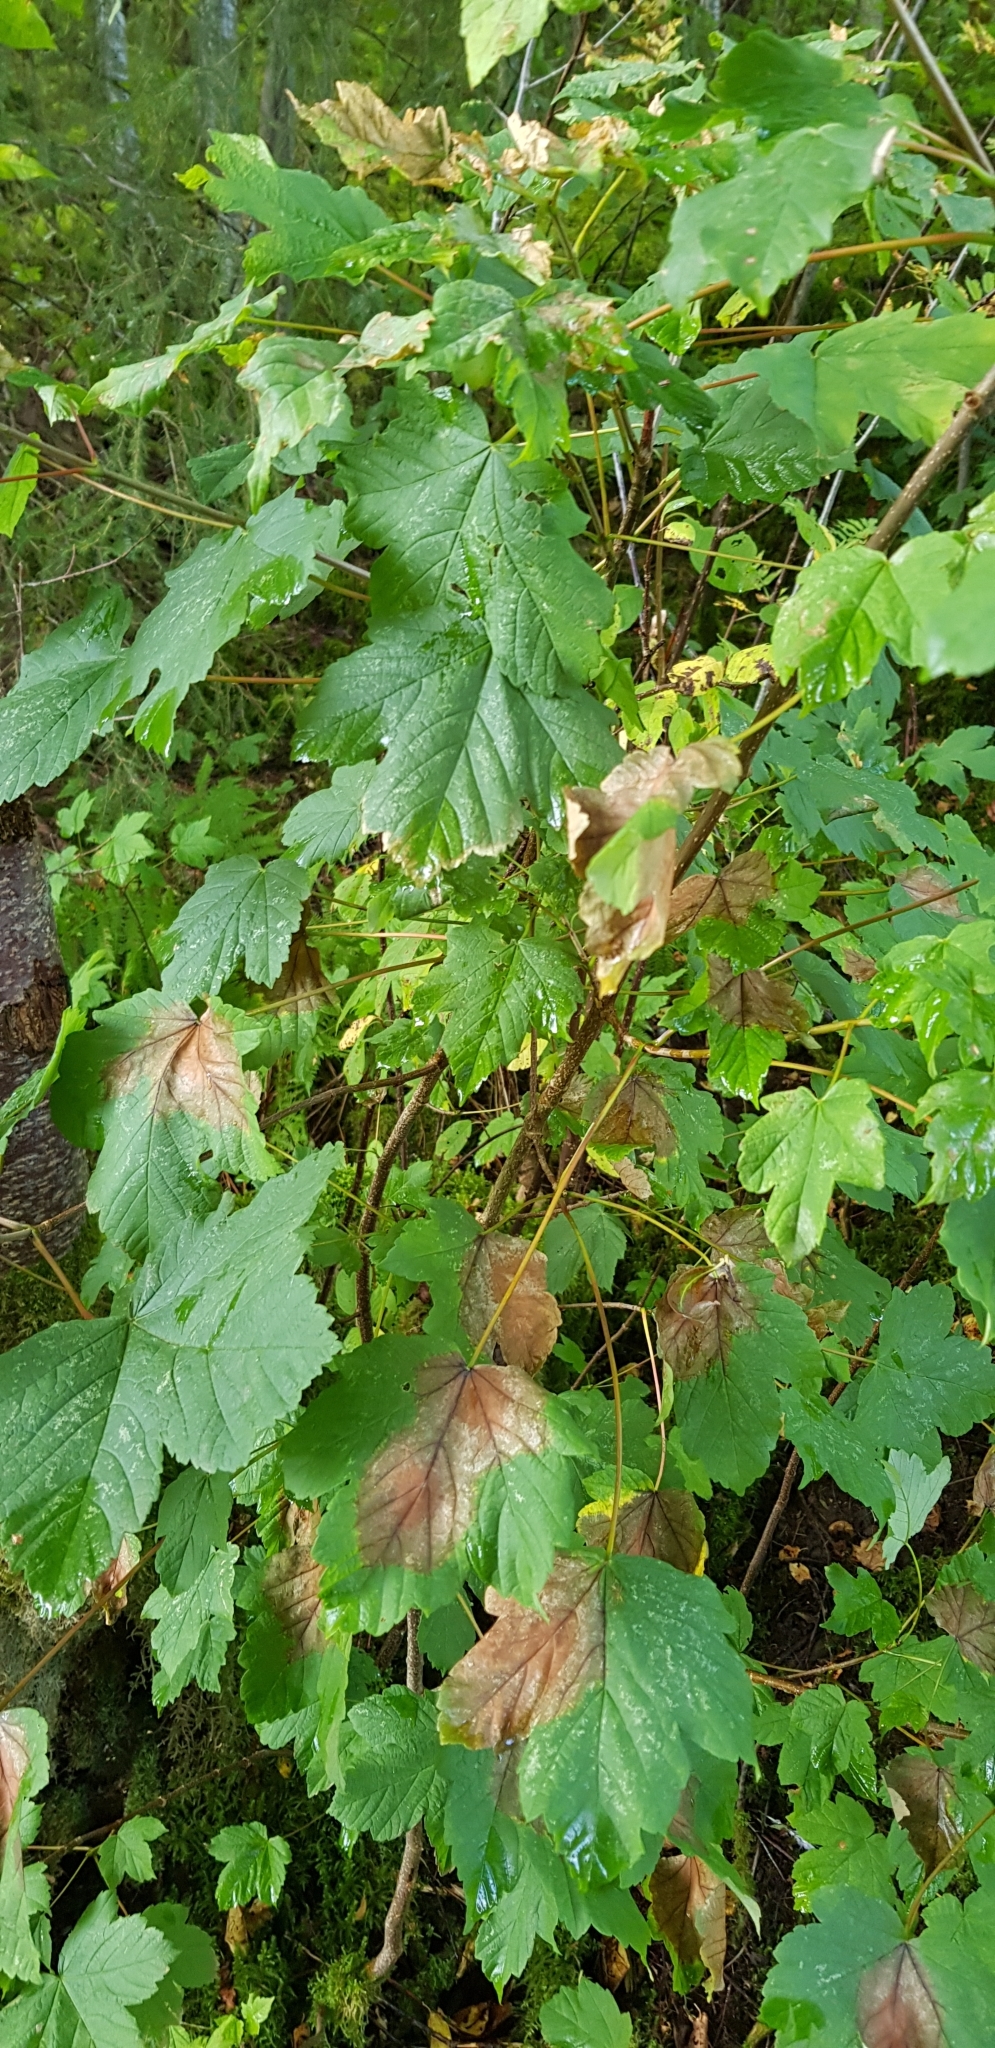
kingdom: Plantae
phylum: Tracheophyta
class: Magnoliopsida
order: Sapindales
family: Sapindaceae
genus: Acer
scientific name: Acer pseudoplatanus
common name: Sycamore
